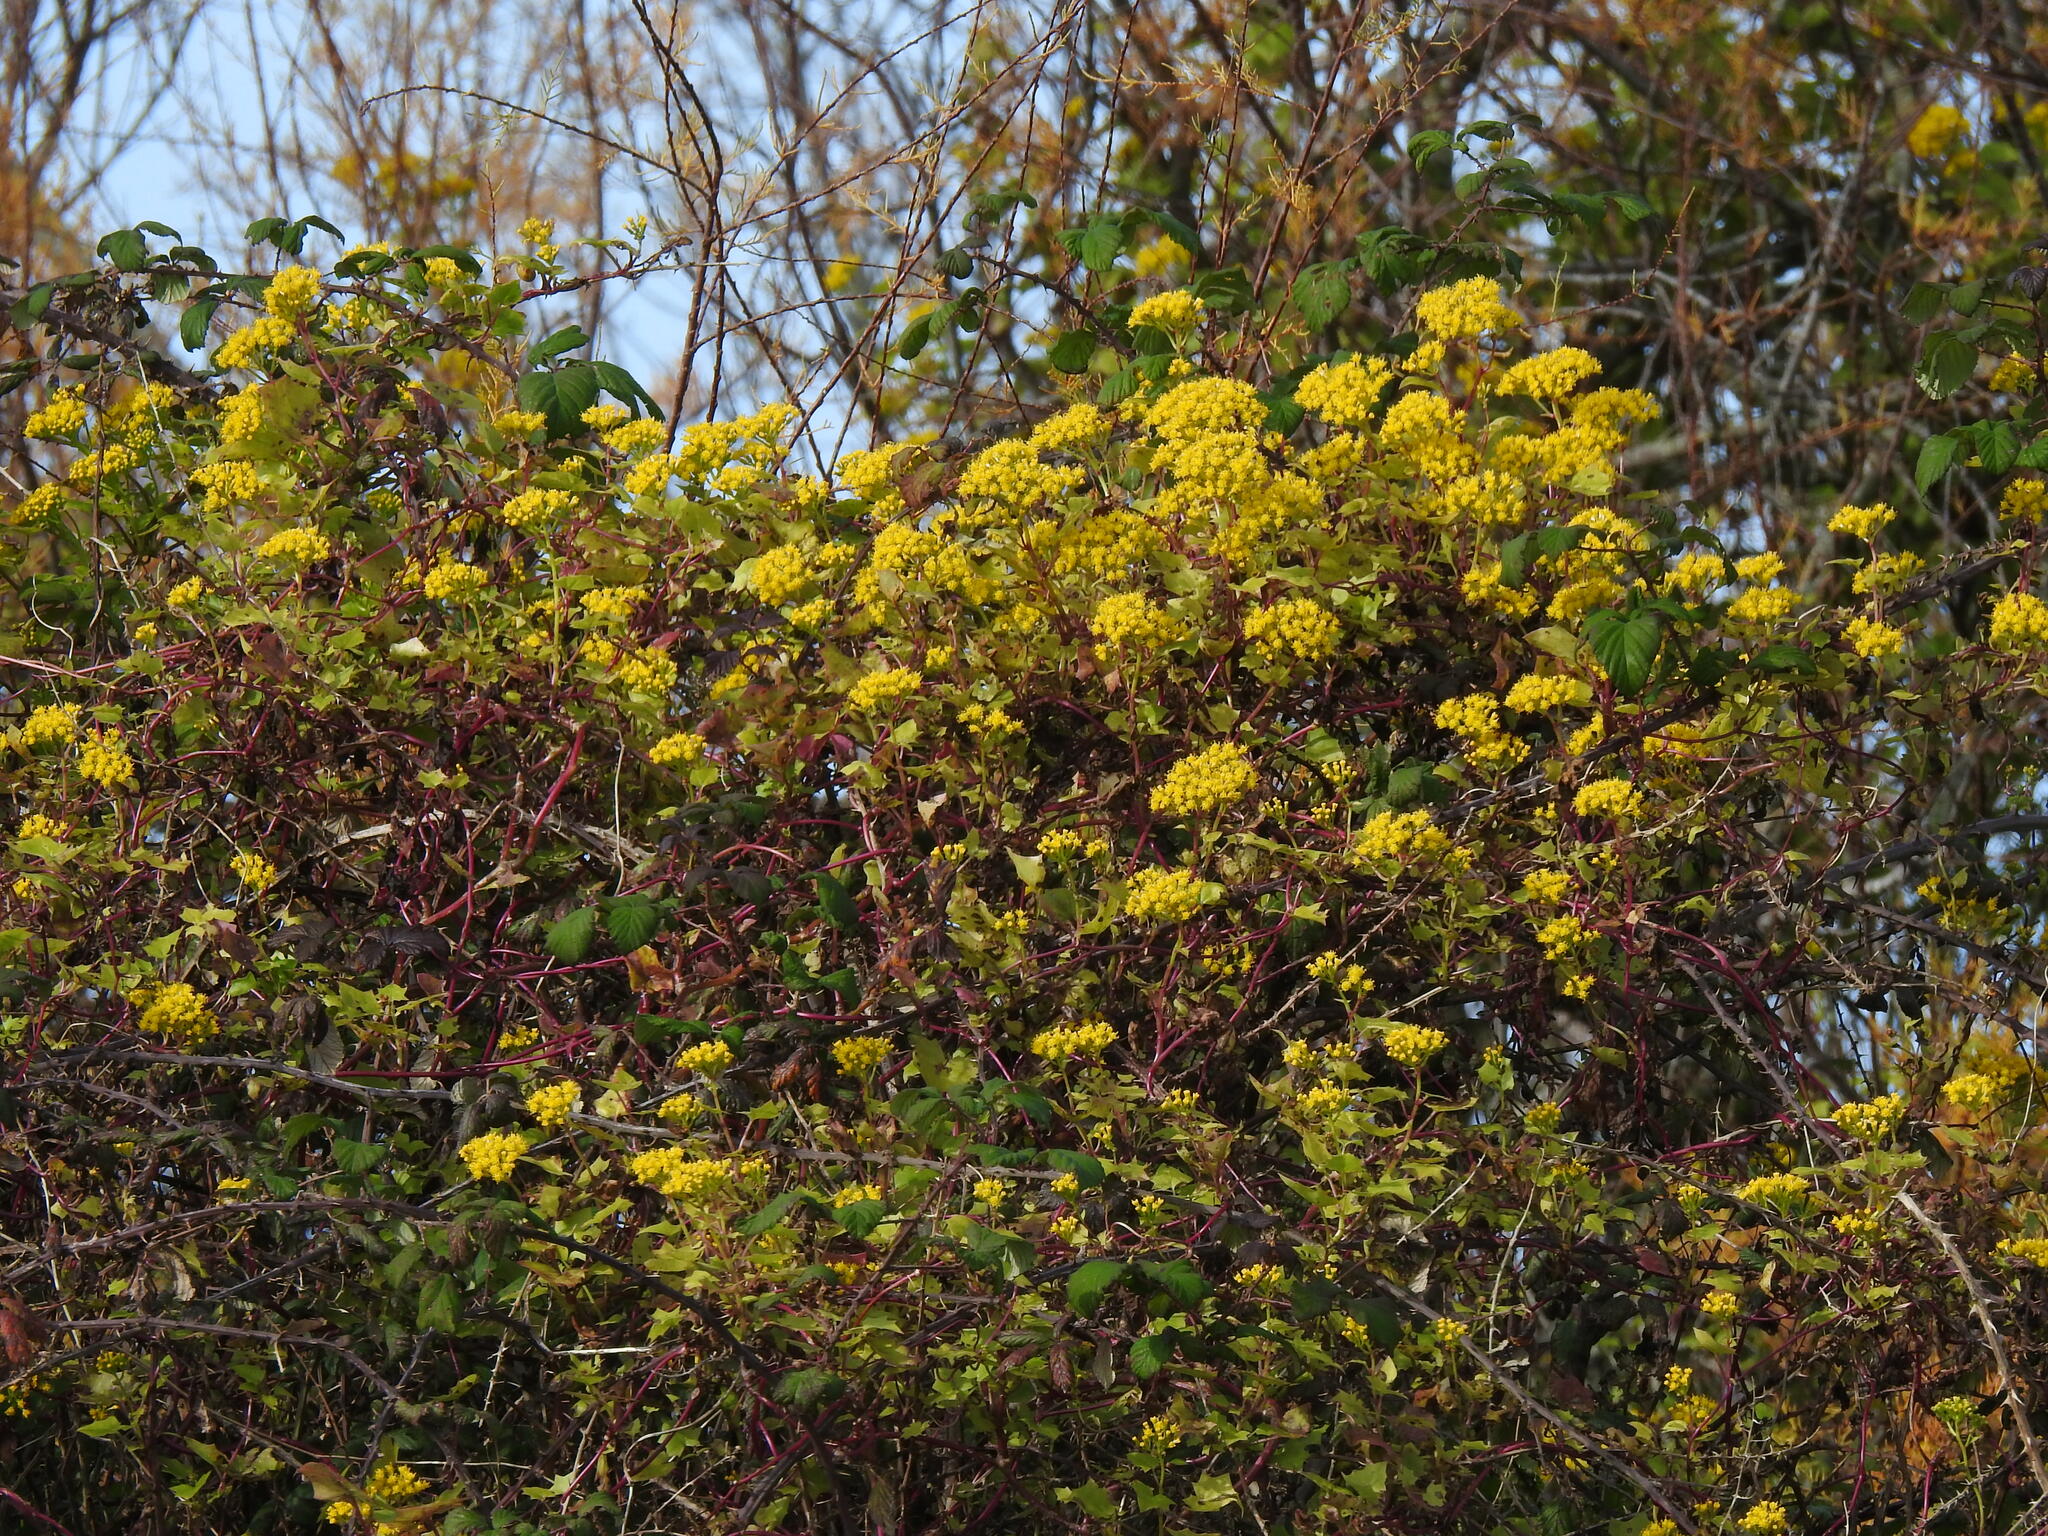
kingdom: Plantae
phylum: Tracheophyta
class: Magnoliopsida
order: Asterales
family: Asteraceae
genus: Delairea
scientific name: Delairea odorata
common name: Cape-ivy
